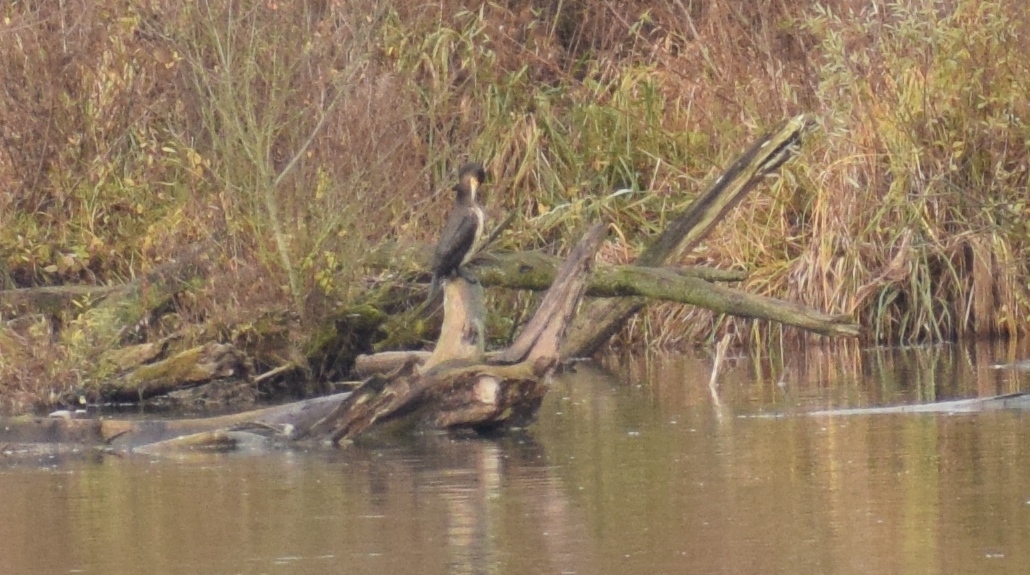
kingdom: Animalia
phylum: Chordata
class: Aves
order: Suliformes
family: Phalacrocoracidae
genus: Phalacrocorax
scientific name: Phalacrocorax carbo
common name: Great cormorant
